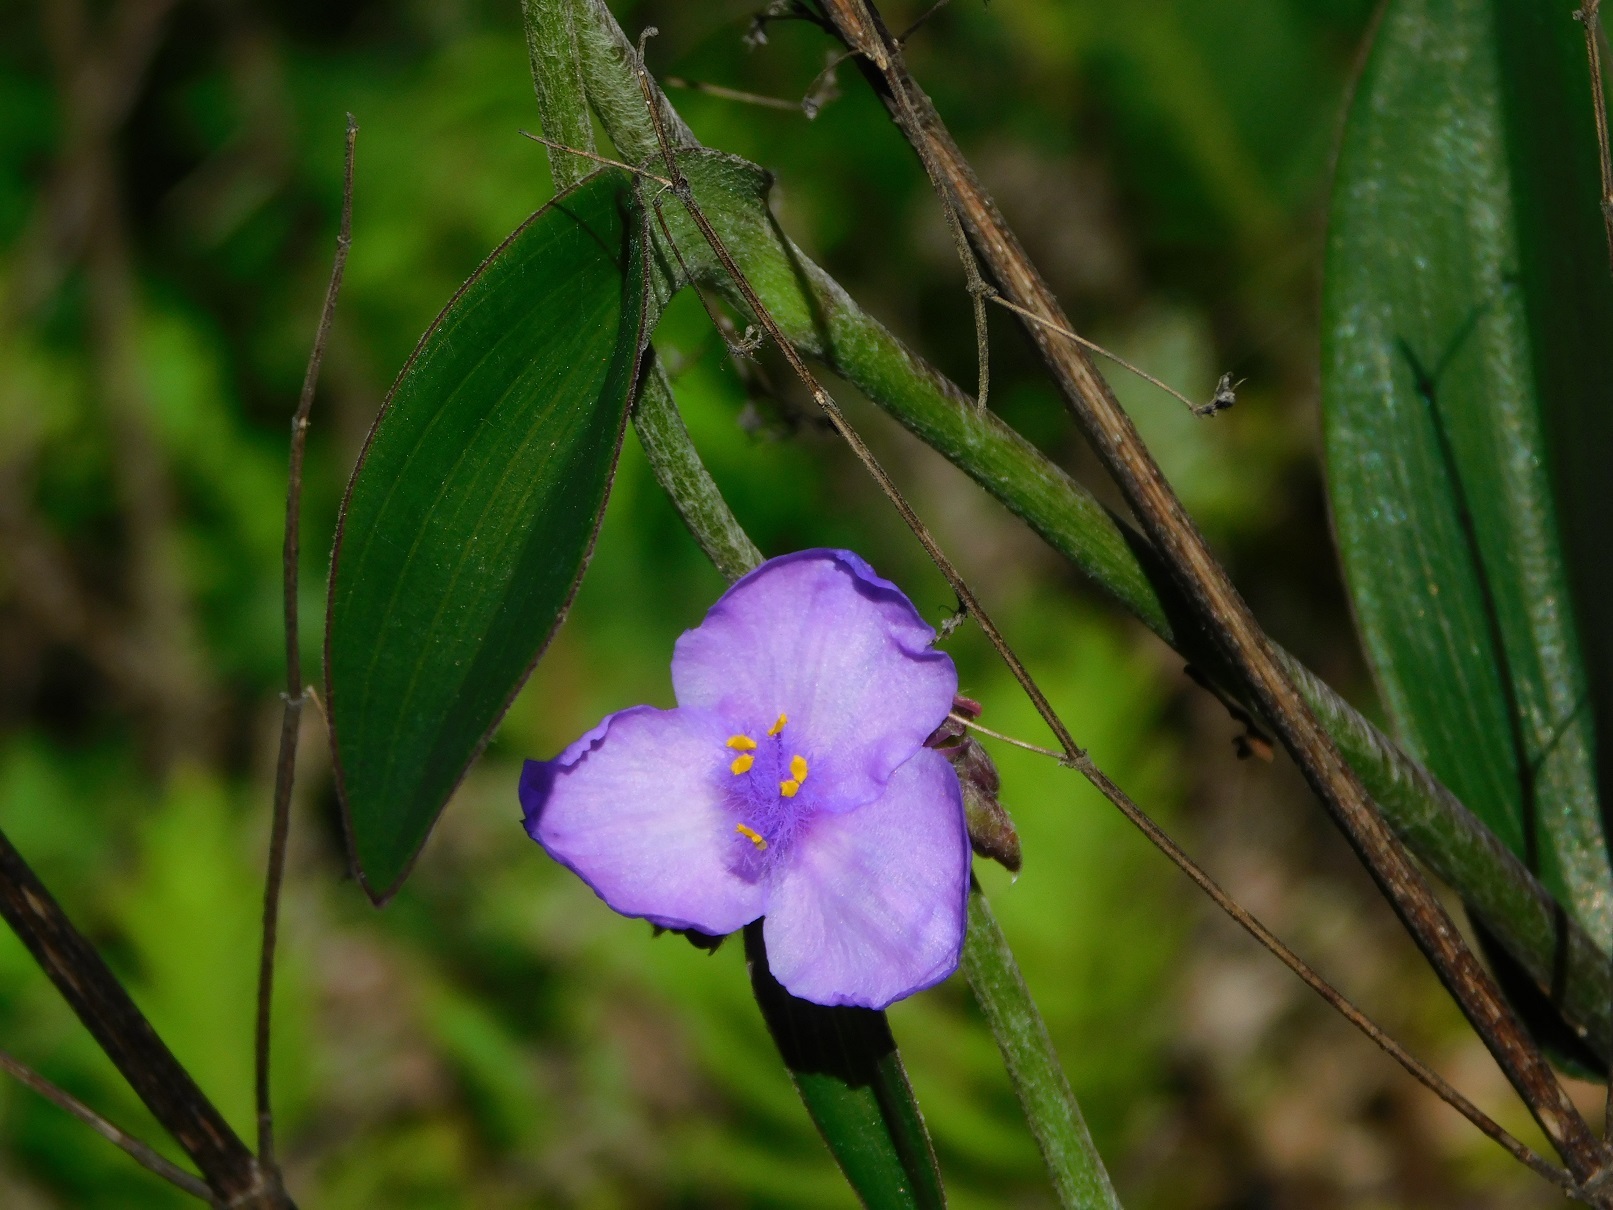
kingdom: Plantae
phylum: Tracheophyta
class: Liliopsida
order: Commelinales
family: Commelinaceae
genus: Tradescantia
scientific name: Tradescantia crassifolia
